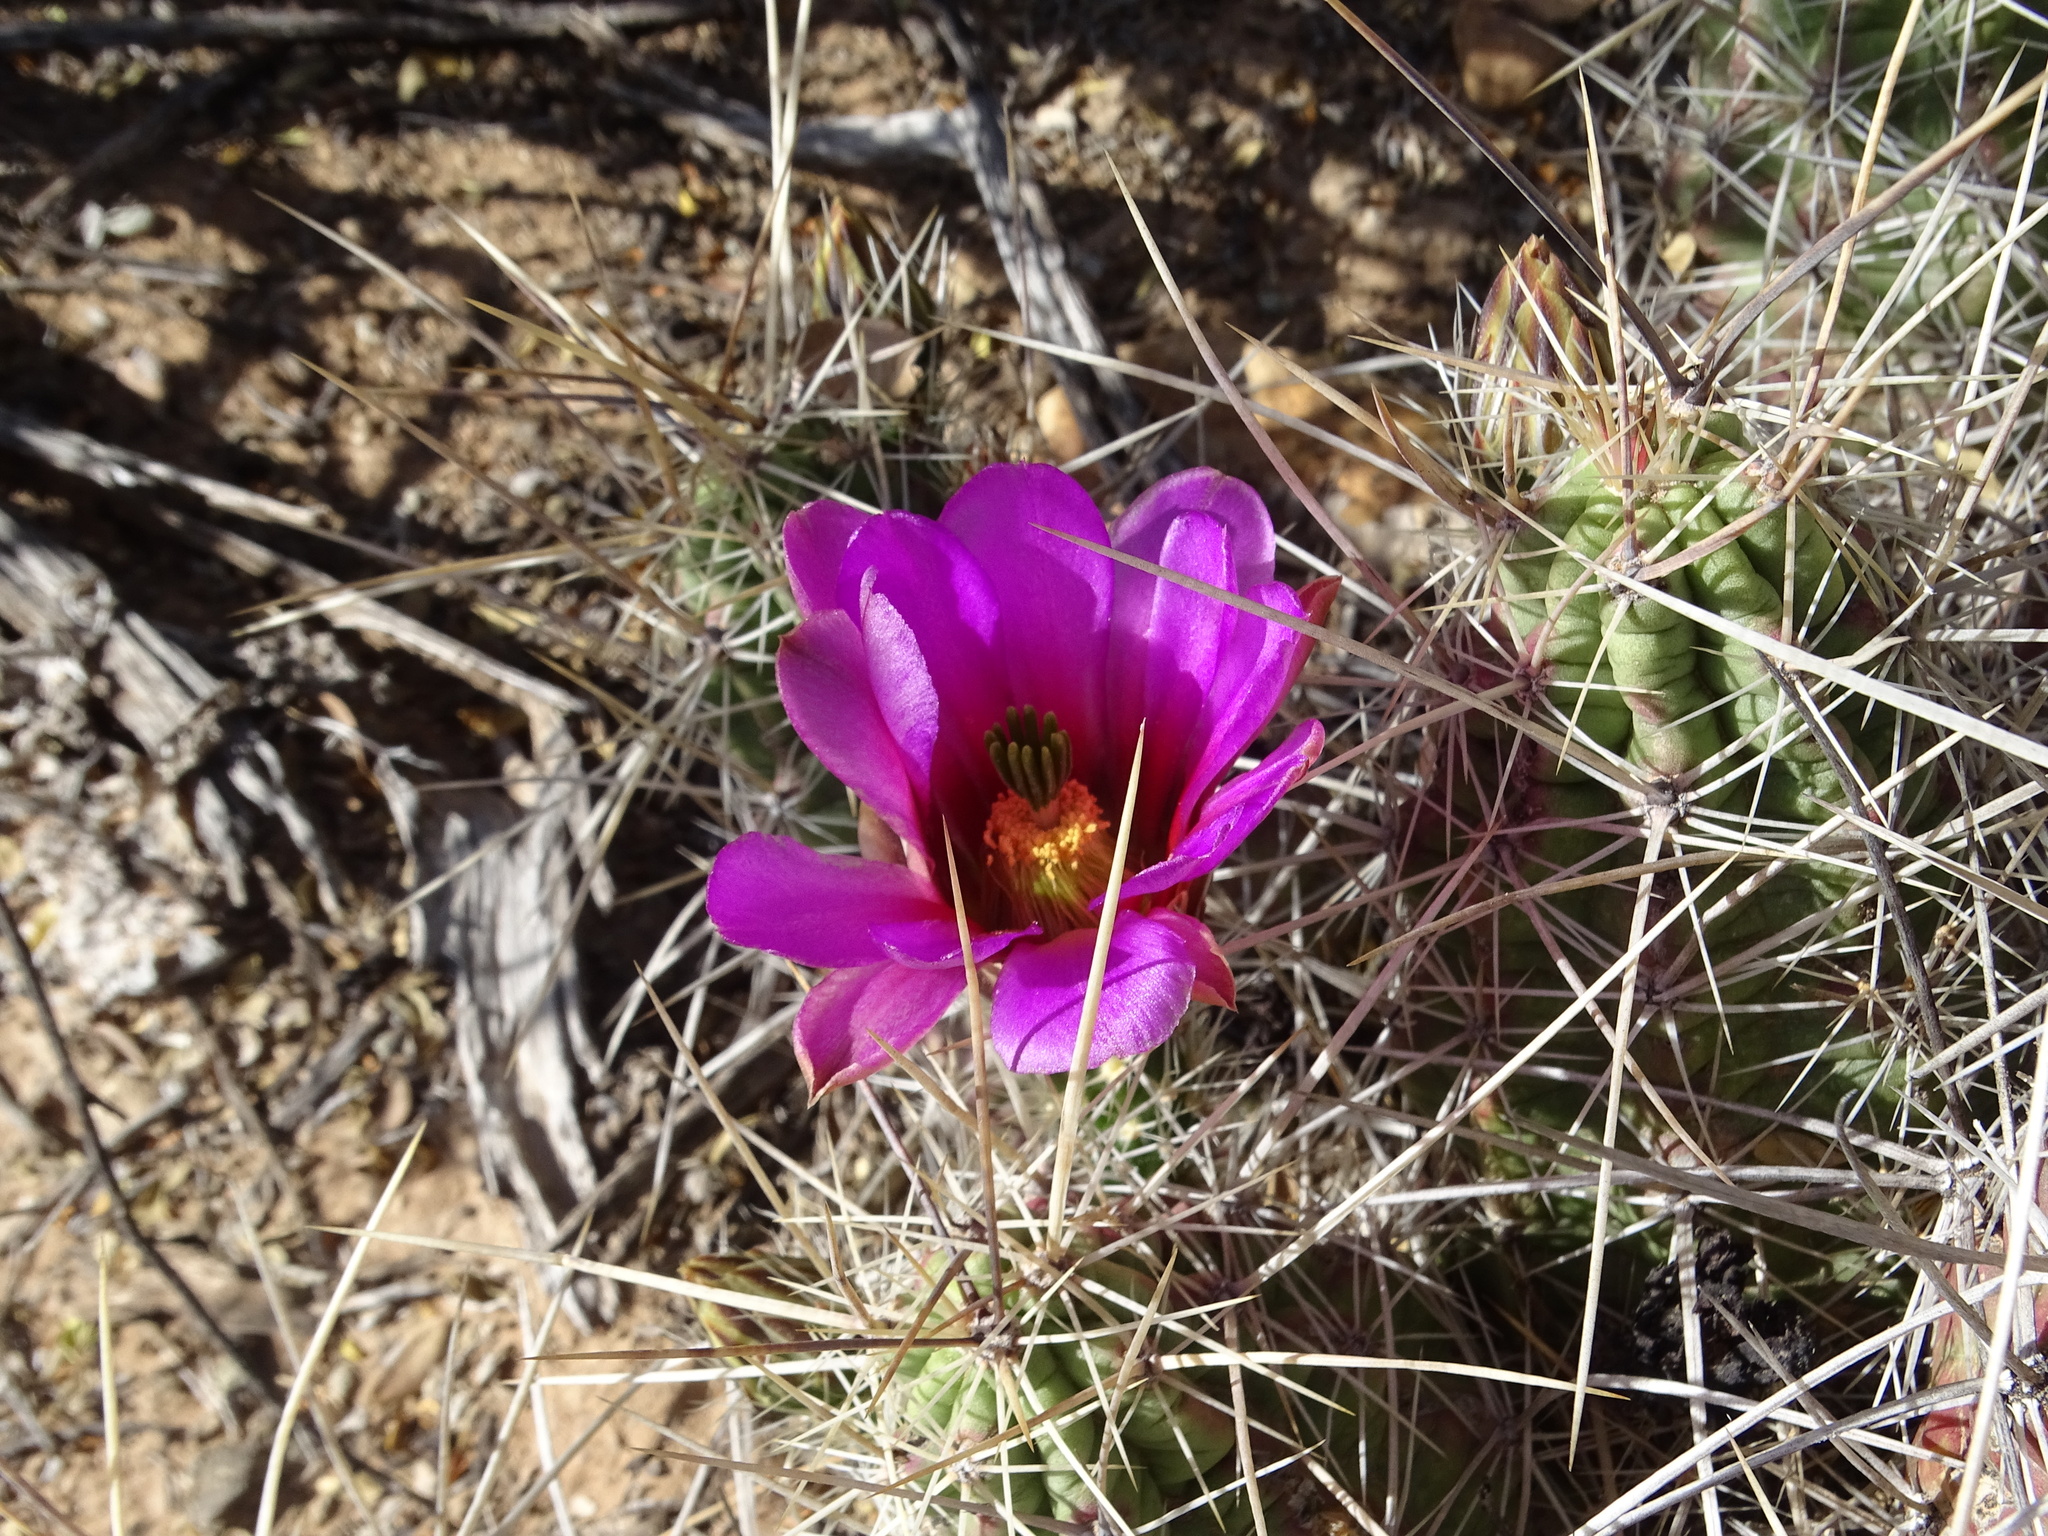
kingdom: Plantae
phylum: Tracheophyta
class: Magnoliopsida
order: Caryophyllales
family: Cactaceae
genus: Echinocereus
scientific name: Echinocereus enneacanthus
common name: Pitaya
